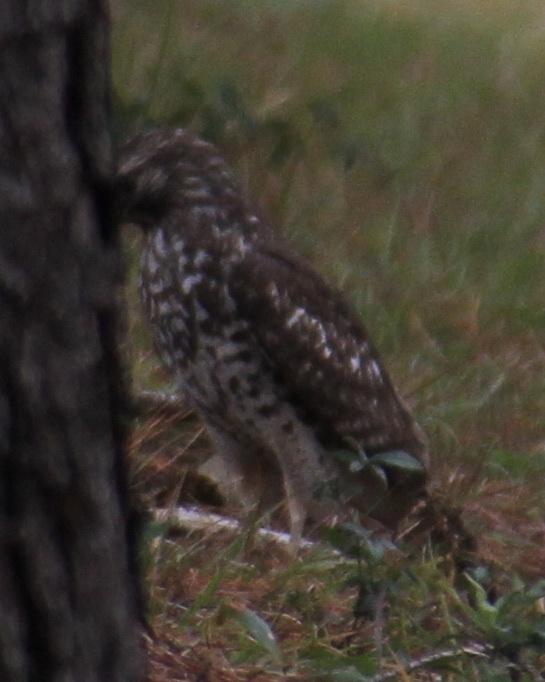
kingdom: Animalia
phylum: Chordata
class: Aves
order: Accipitriformes
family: Accipitridae
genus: Buteo
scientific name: Buteo lineatus
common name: Red-shouldered hawk
